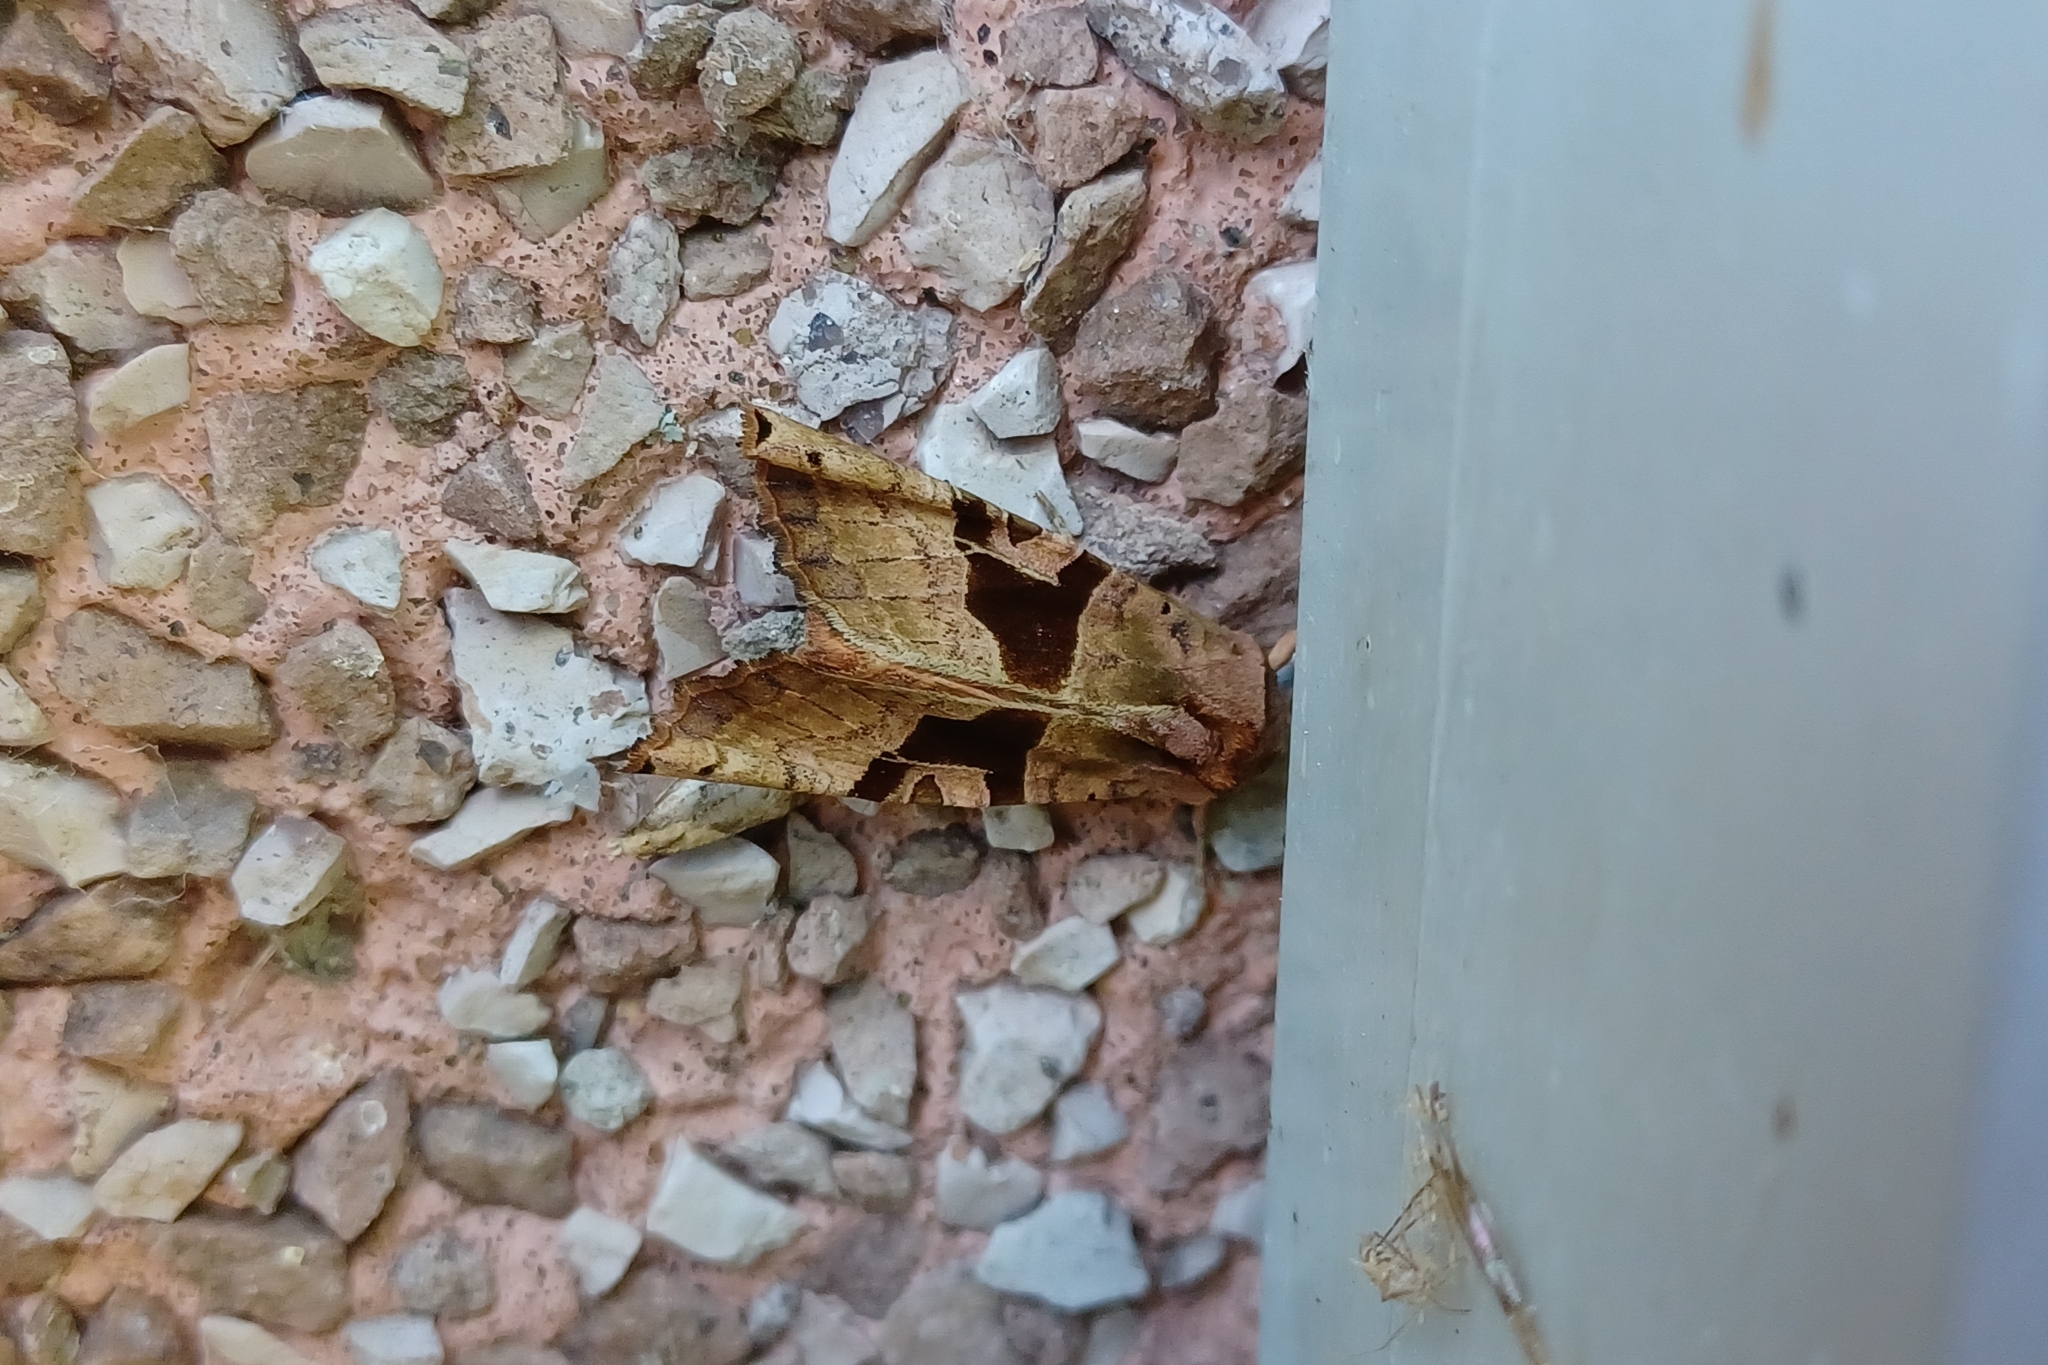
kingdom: Animalia
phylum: Arthropoda
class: Insecta
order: Lepidoptera
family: Noctuidae
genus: Phlogophora
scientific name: Phlogophora periculosa
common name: Brown angle shades
